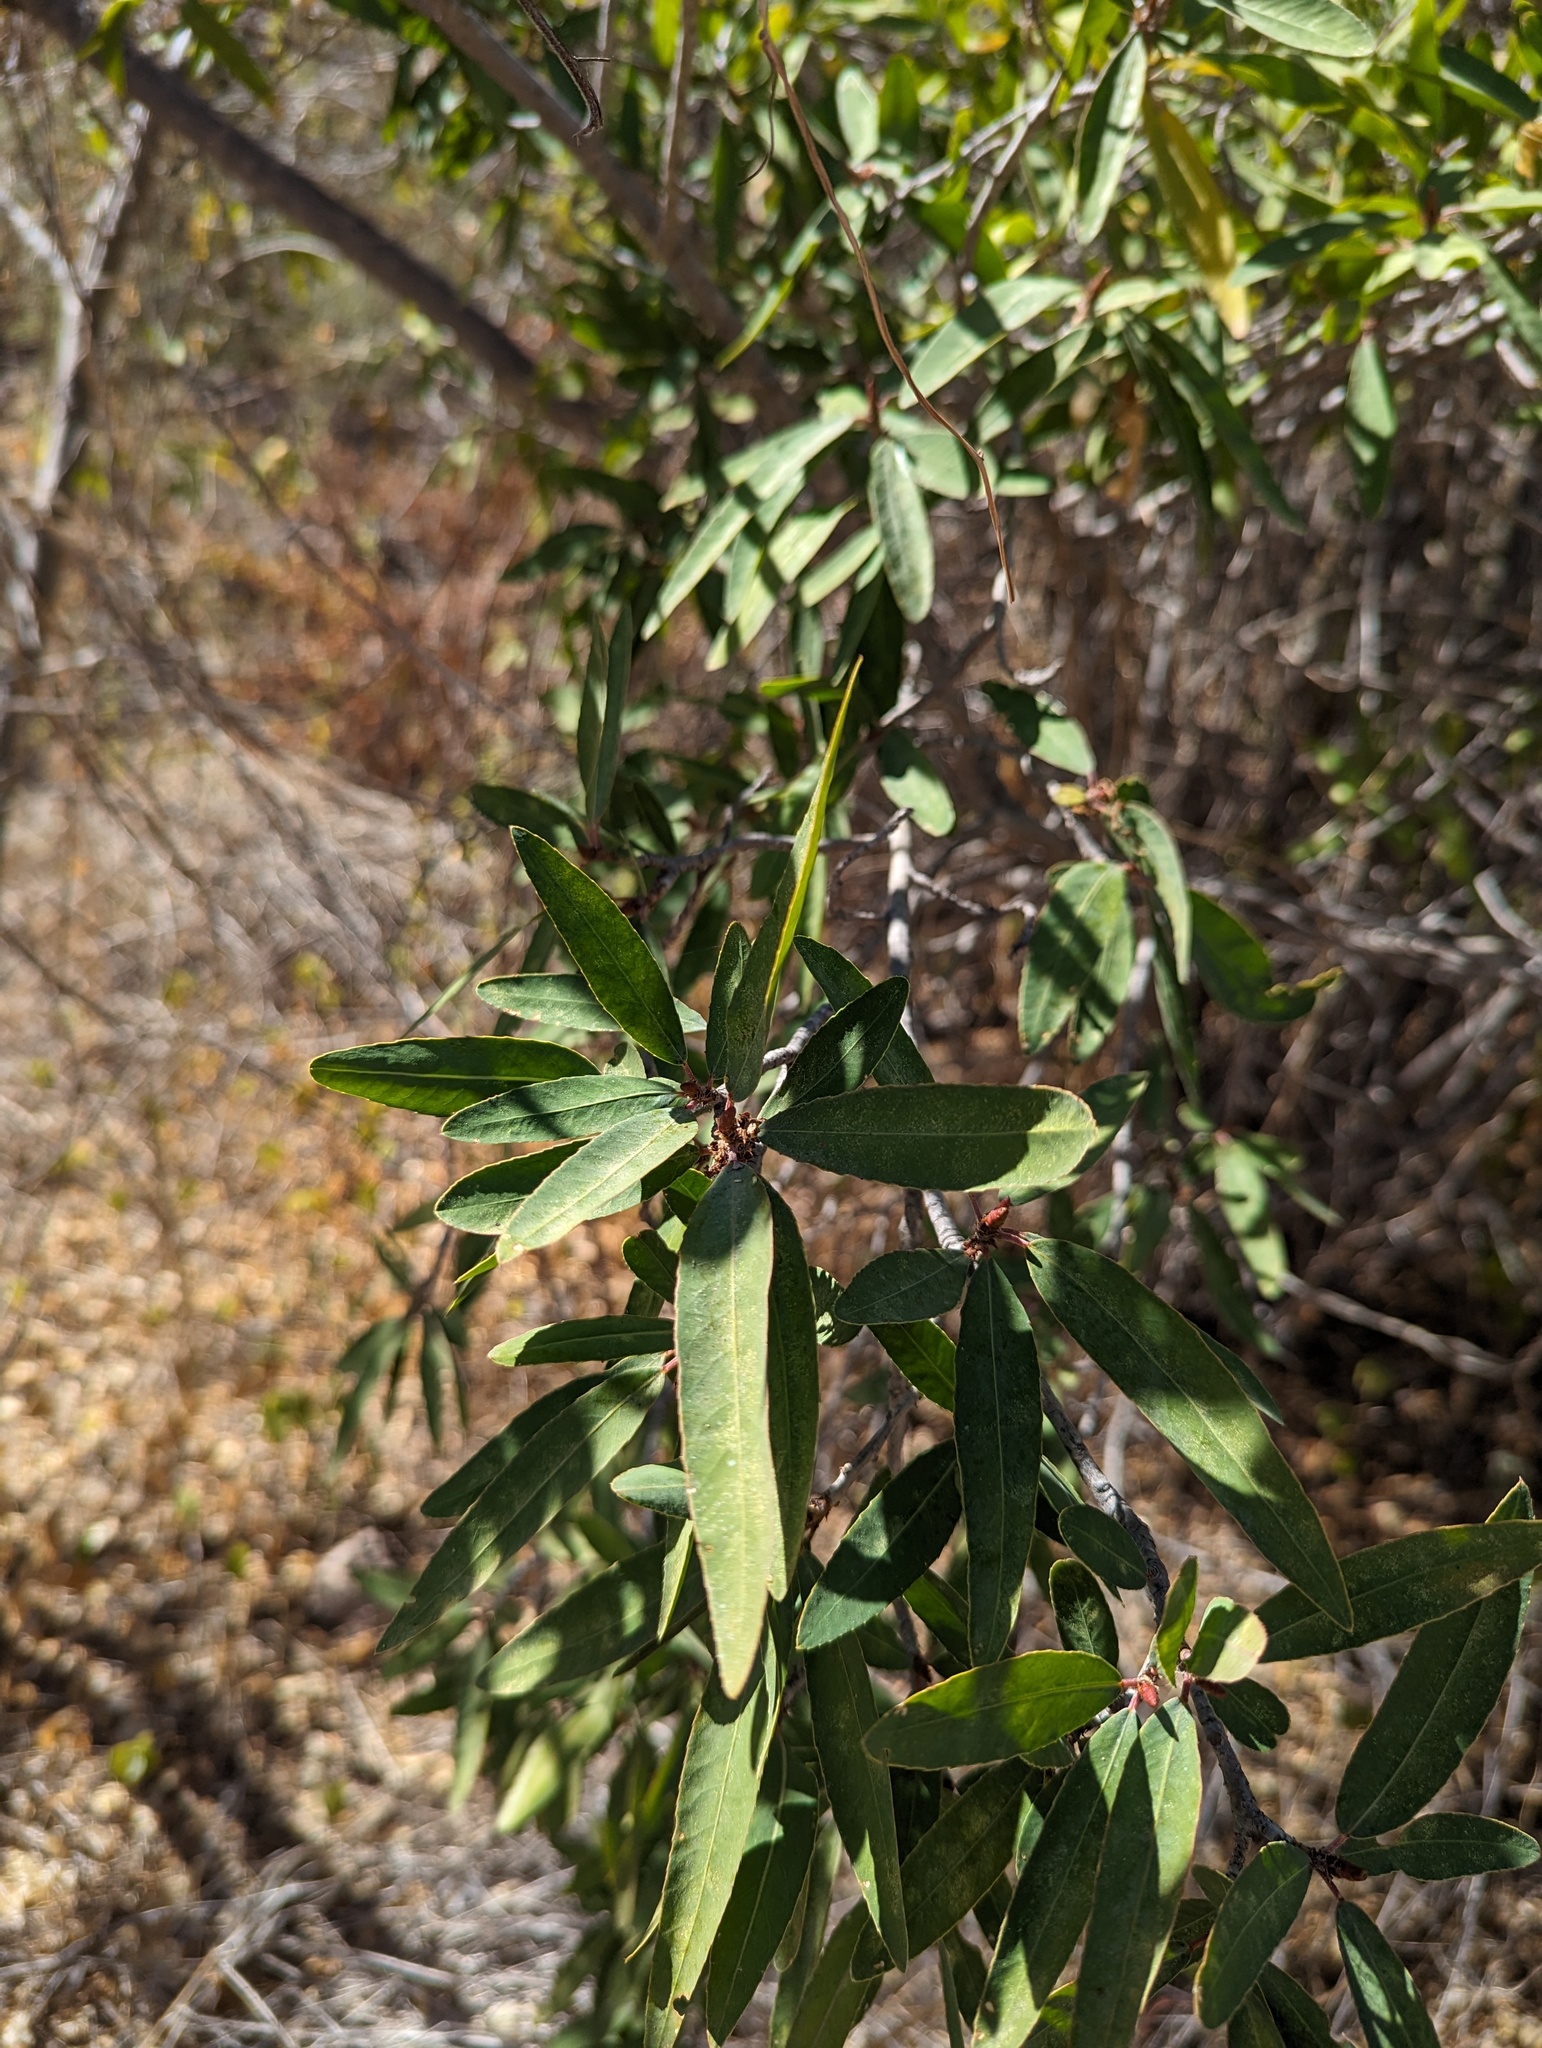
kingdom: Plantae
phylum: Tracheophyta
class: Magnoliopsida
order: Malpighiales
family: Euphorbiaceae
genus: Pleradenophora
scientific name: Pleradenophora bilocularis
